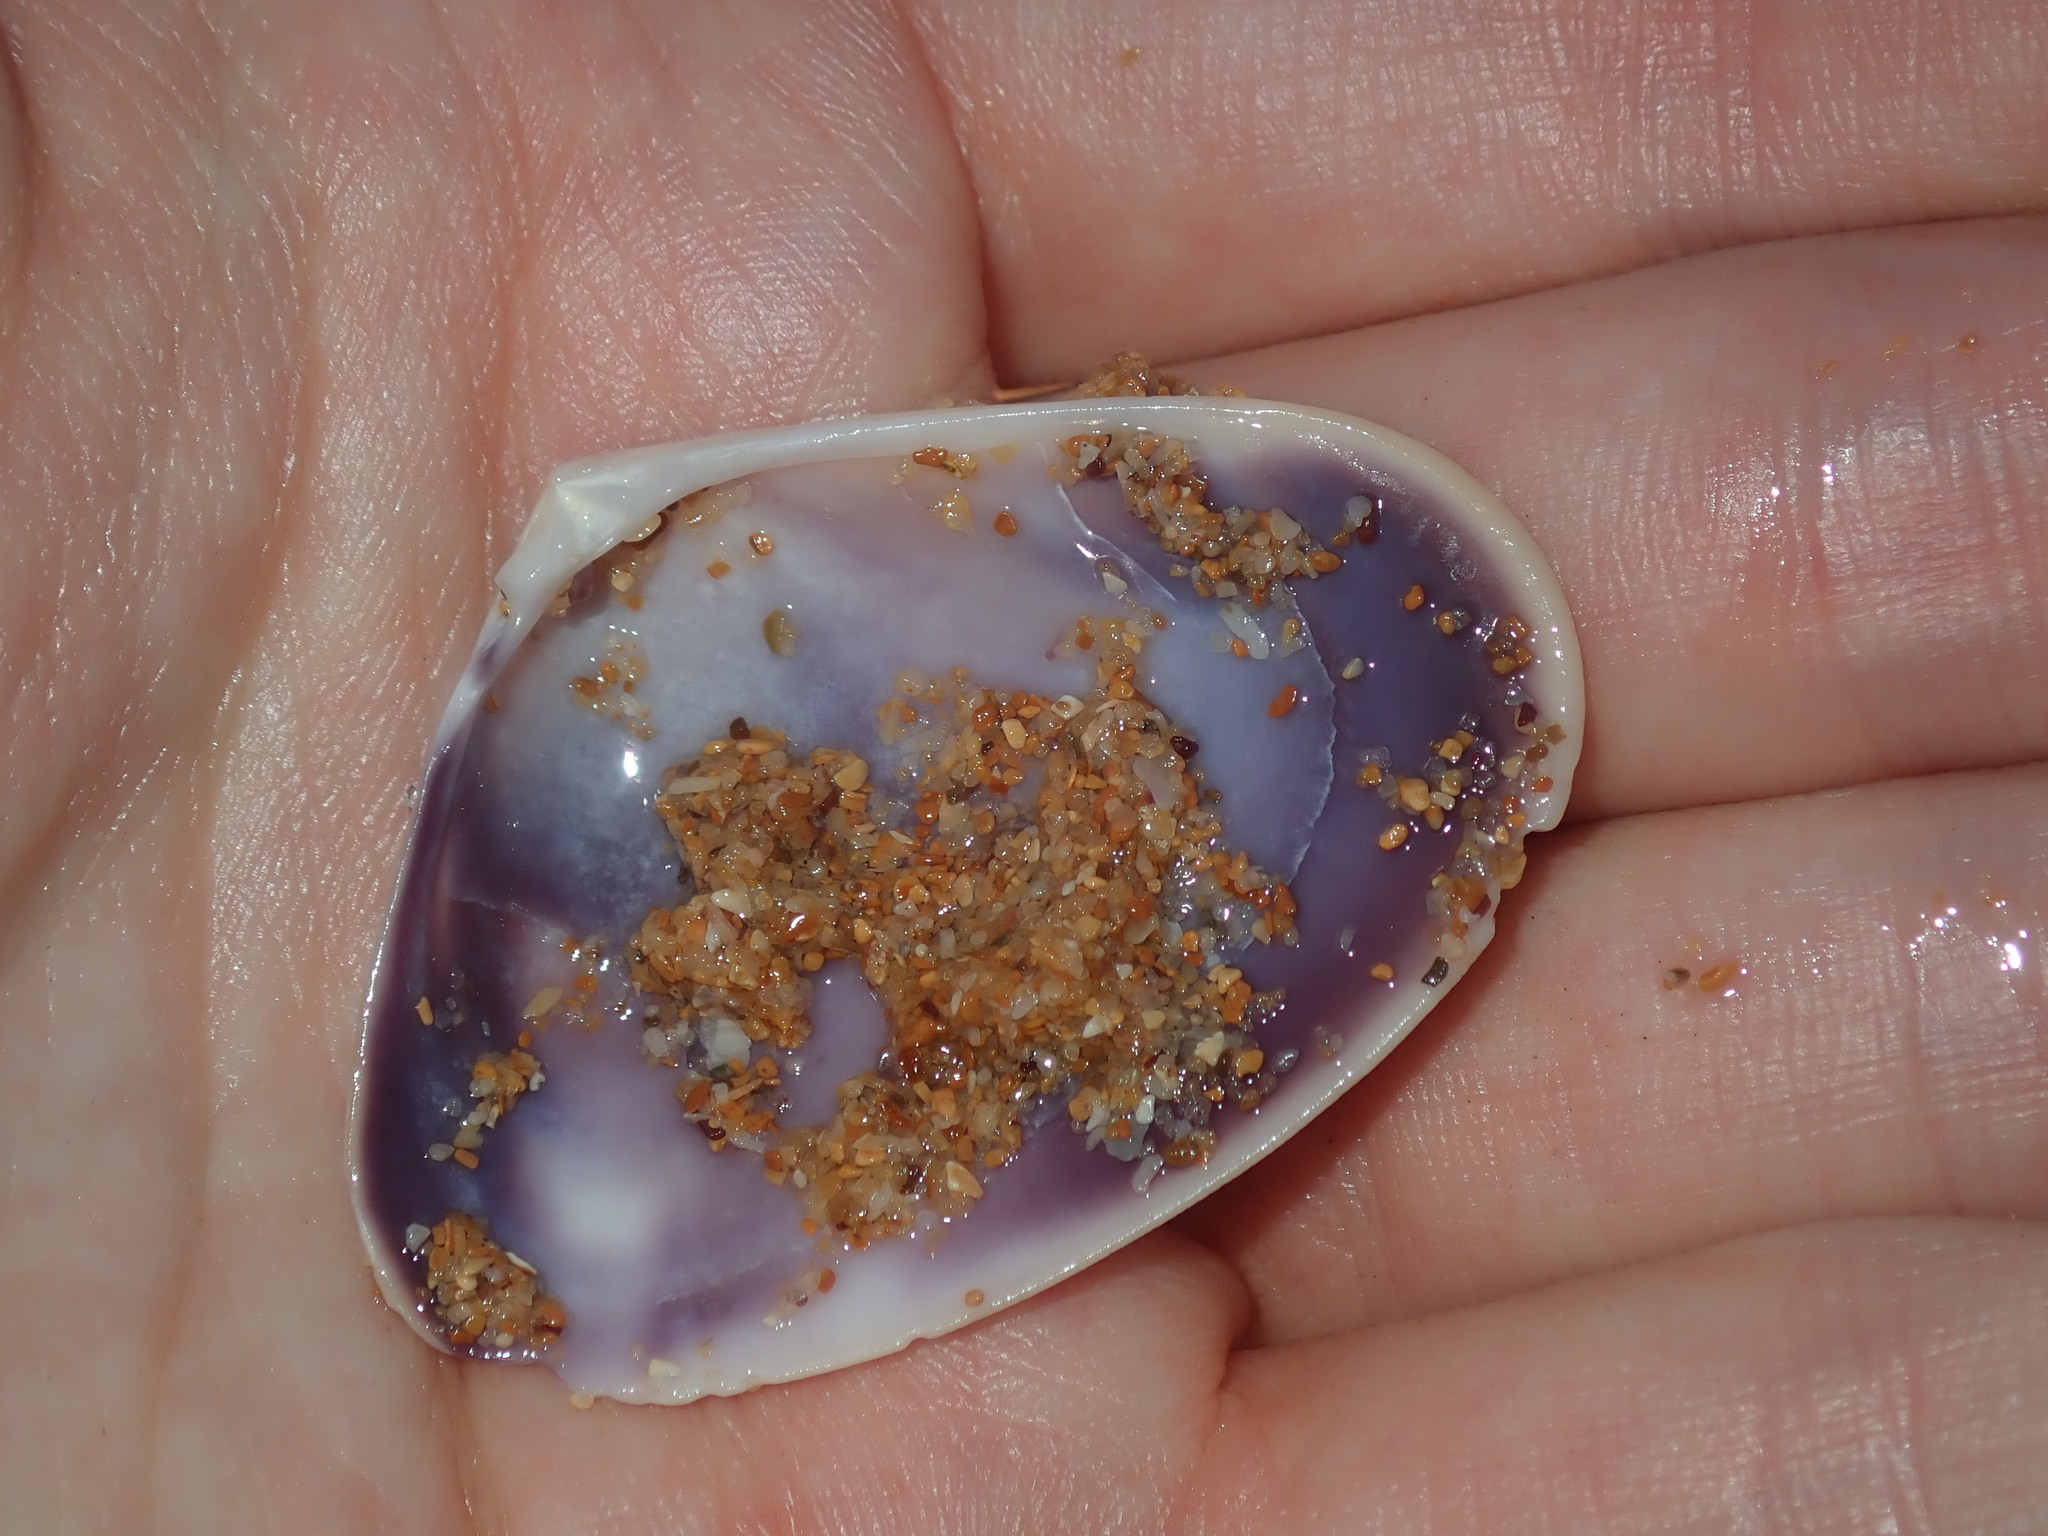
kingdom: Animalia
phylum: Mollusca
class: Bivalvia
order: Cardiida
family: Donacidae
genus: Latona
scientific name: Latona deltoides
